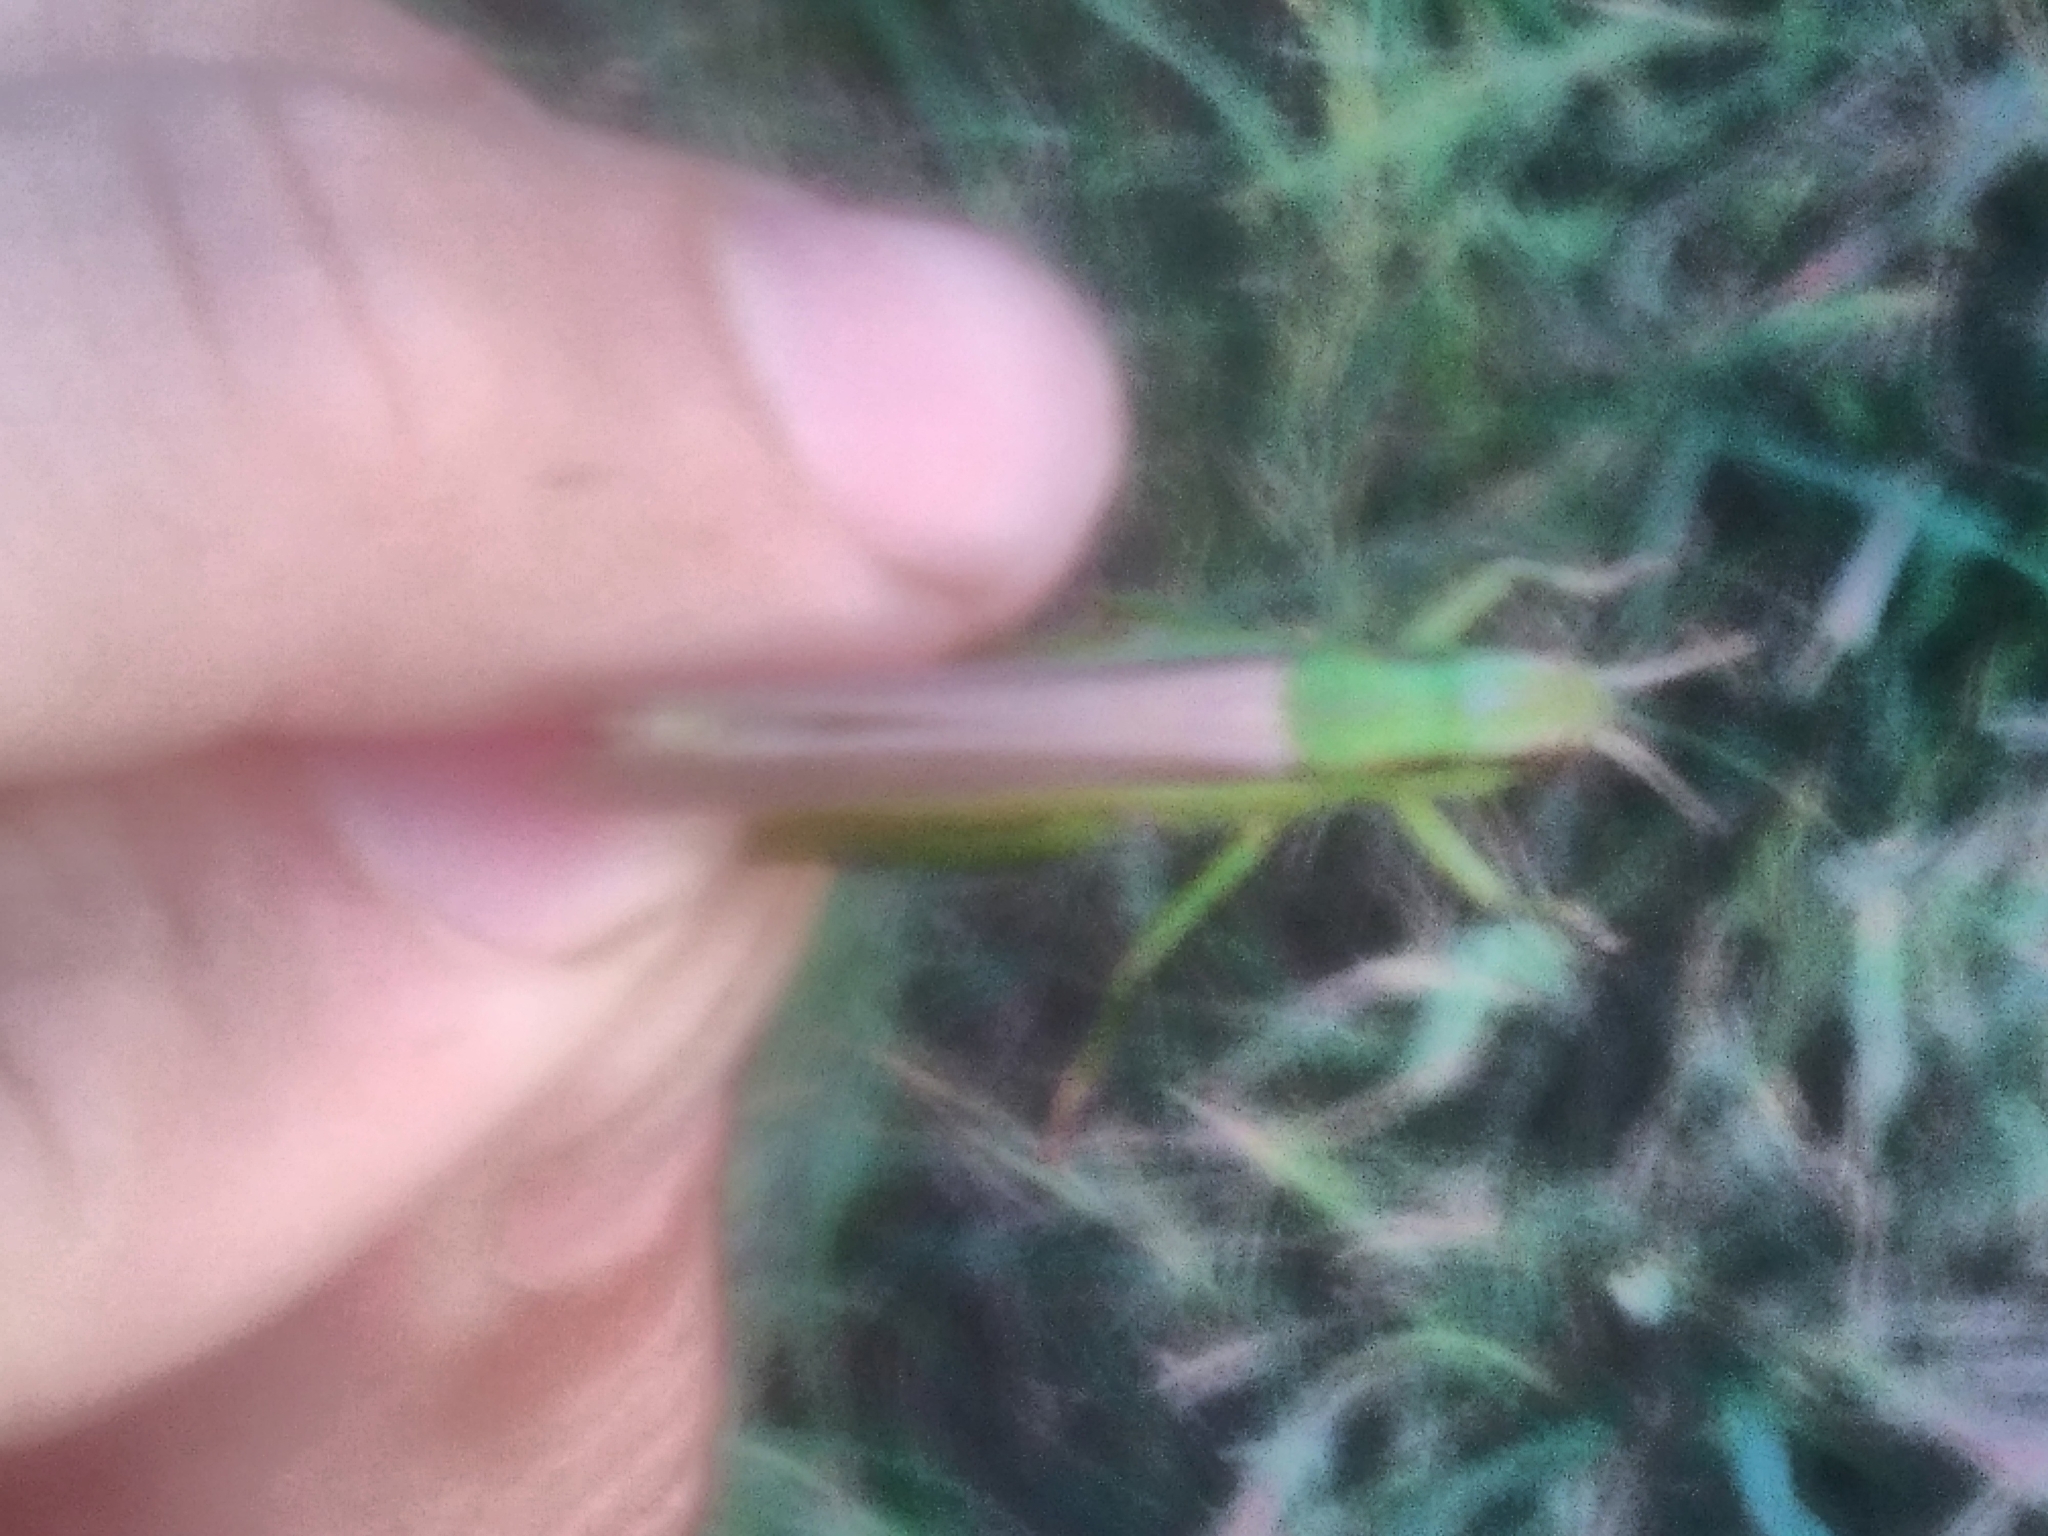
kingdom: Animalia
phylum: Arthropoda
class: Insecta
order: Orthoptera
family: Acrididae
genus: Mecostethus
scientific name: Mecostethus parapleurus
